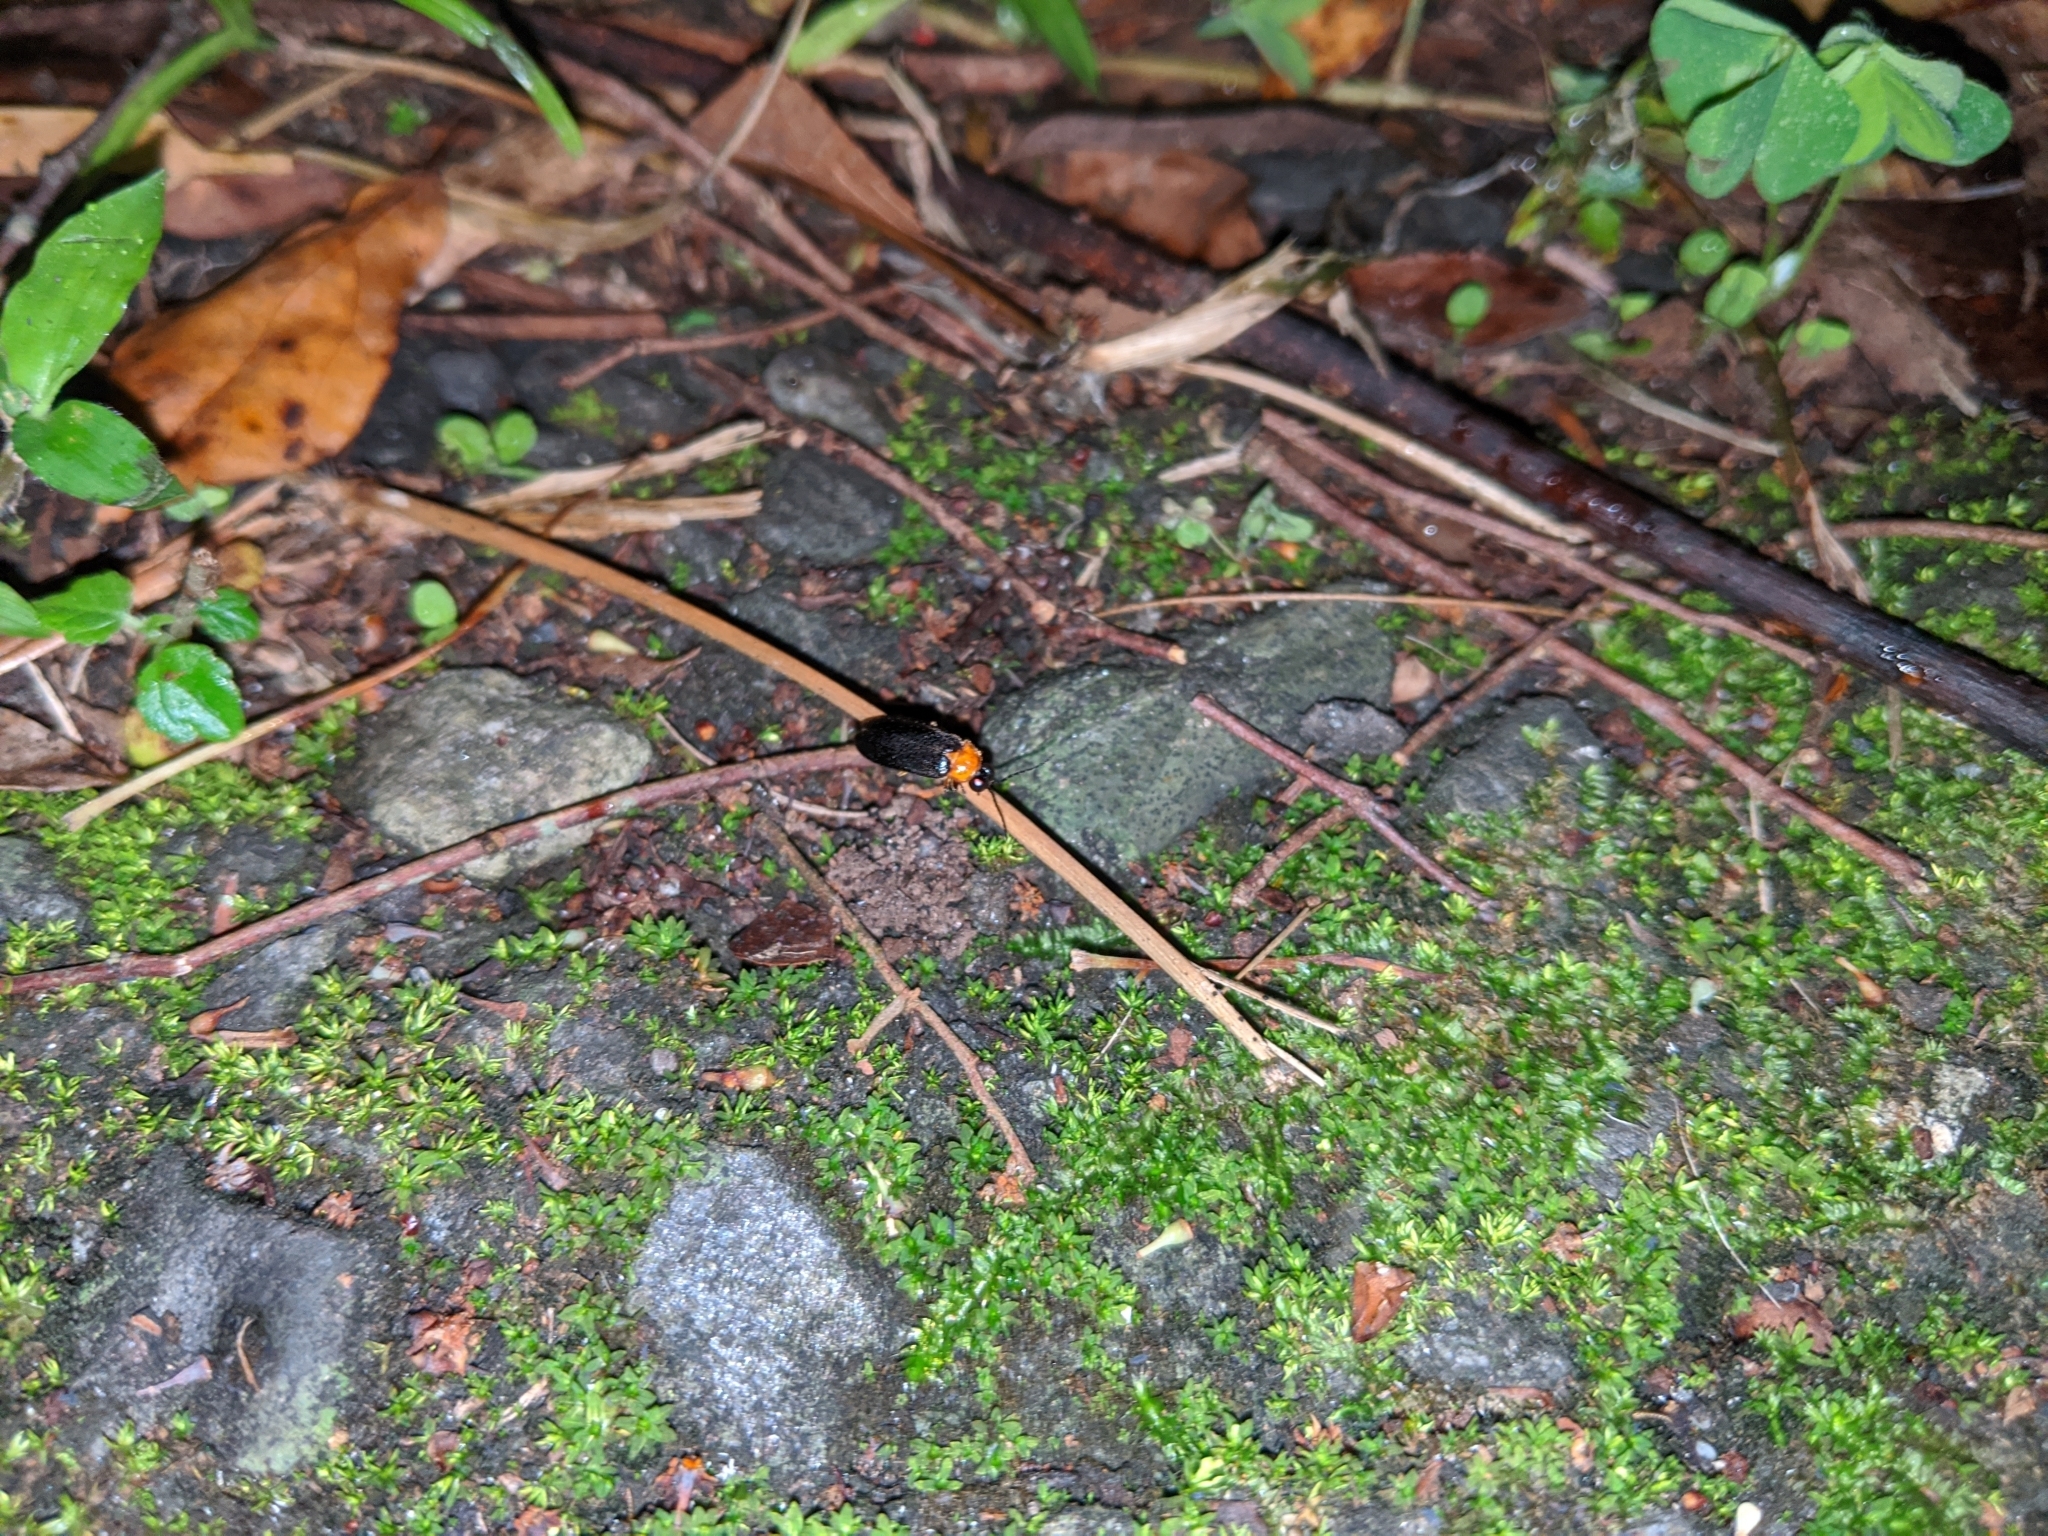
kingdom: Animalia
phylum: Arthropoda
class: Insecta
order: Coleoptera
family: Lampyridae
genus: Abscondita
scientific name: Abscondita cerata
